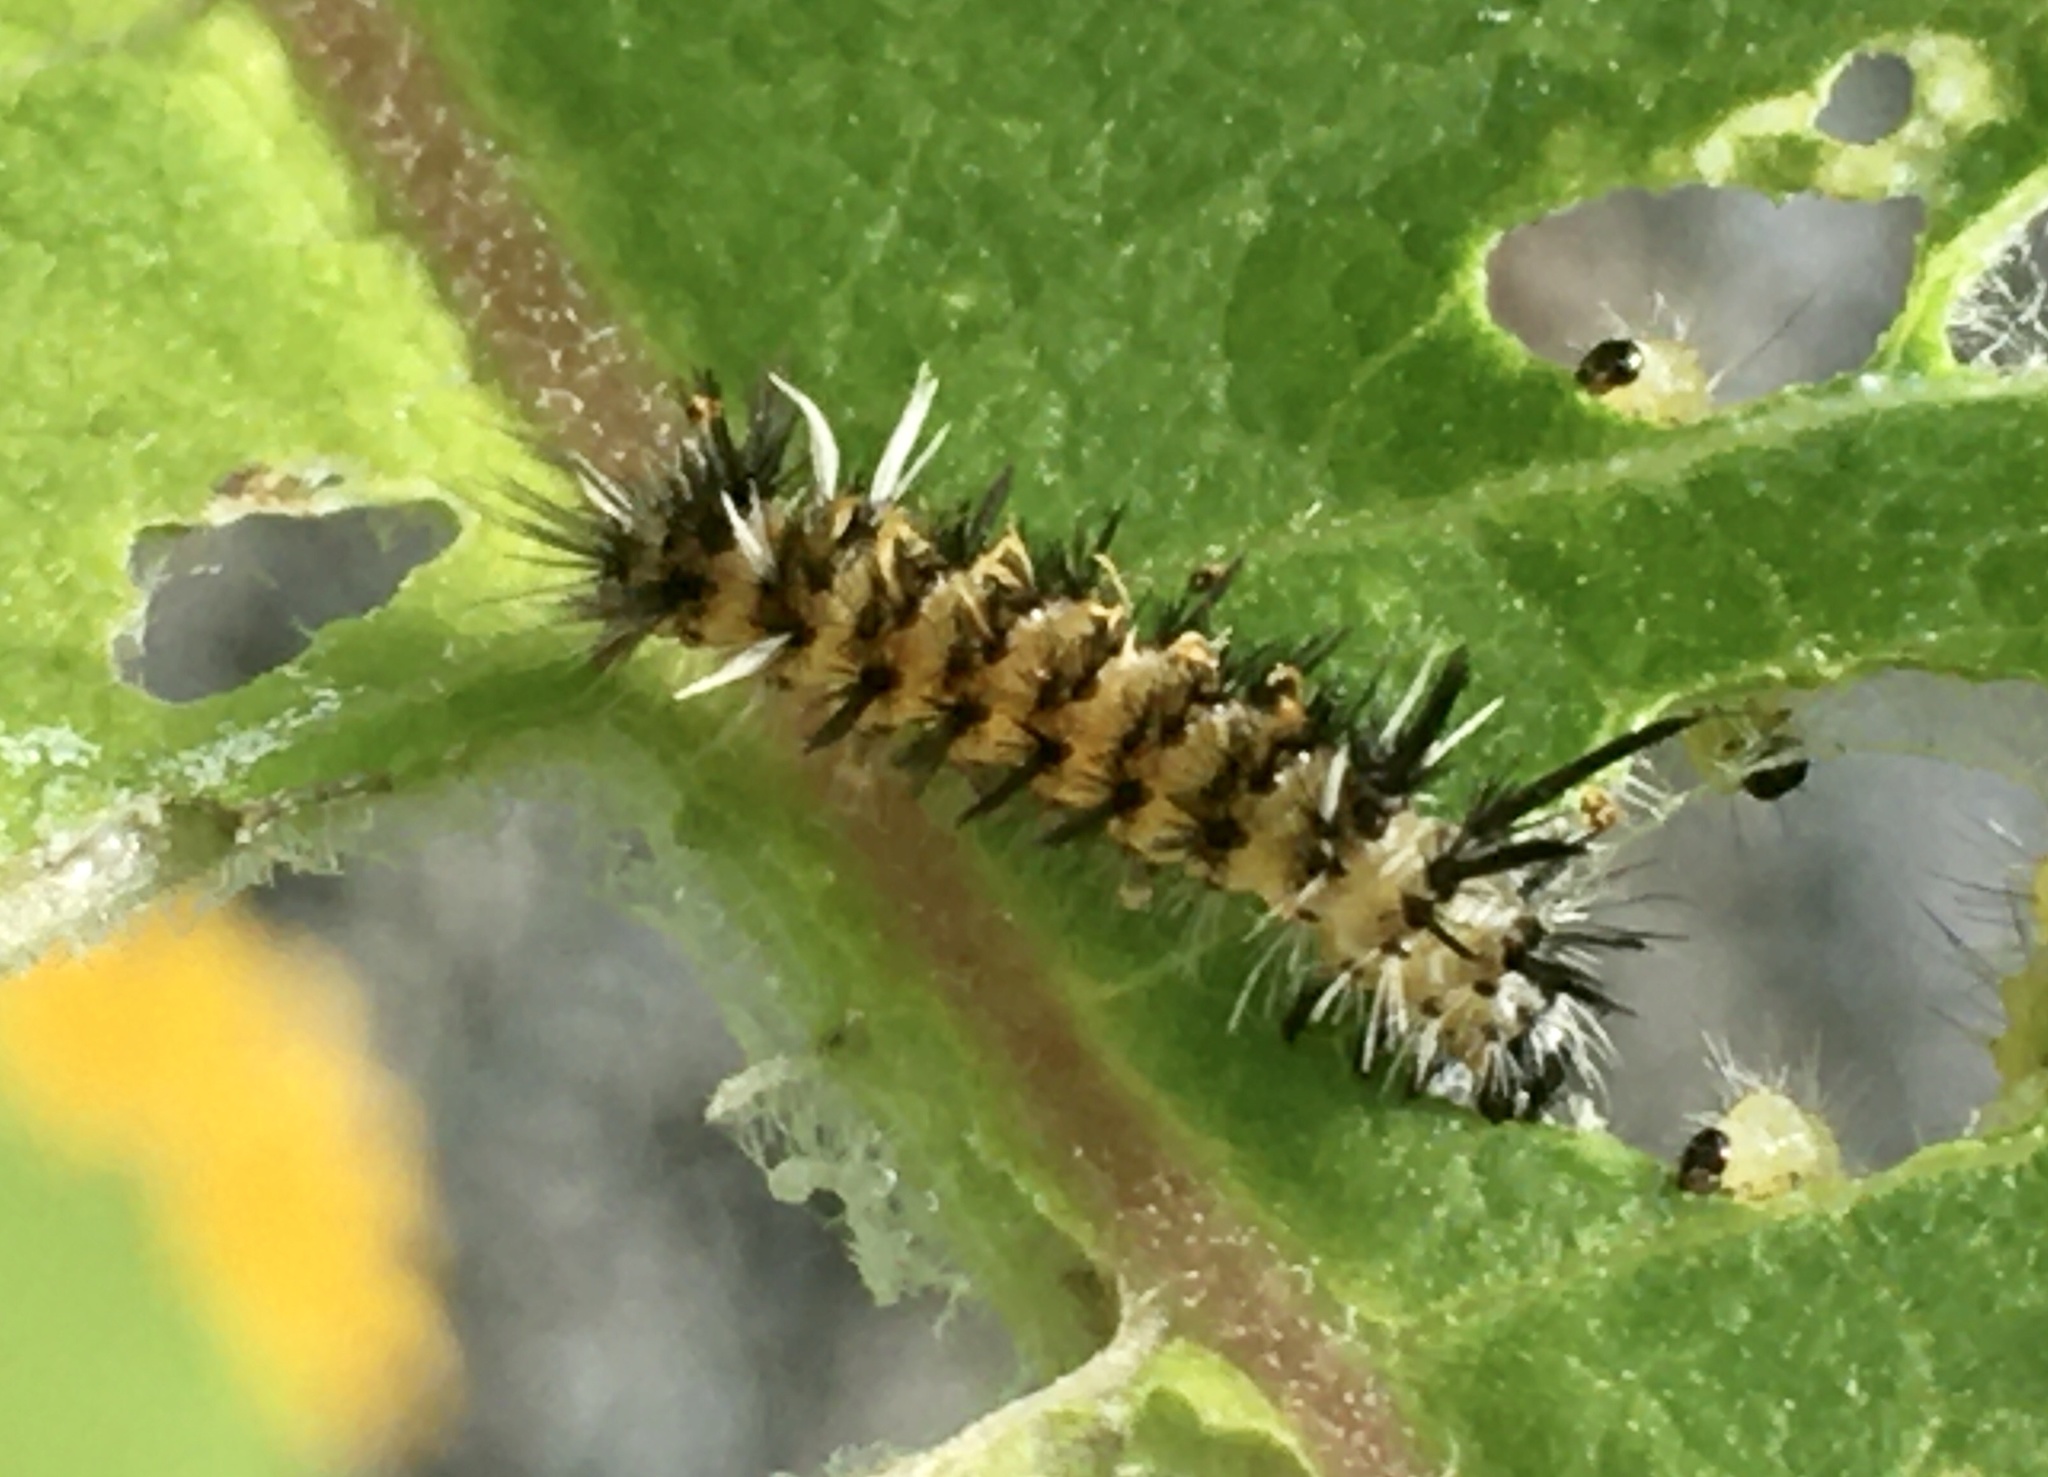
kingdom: Animalia
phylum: Arthropoda
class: Insecta
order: Lepidoptera
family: Erebidae
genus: Euchaetes
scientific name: Euchaetes egle
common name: Milkweed tussock moth
